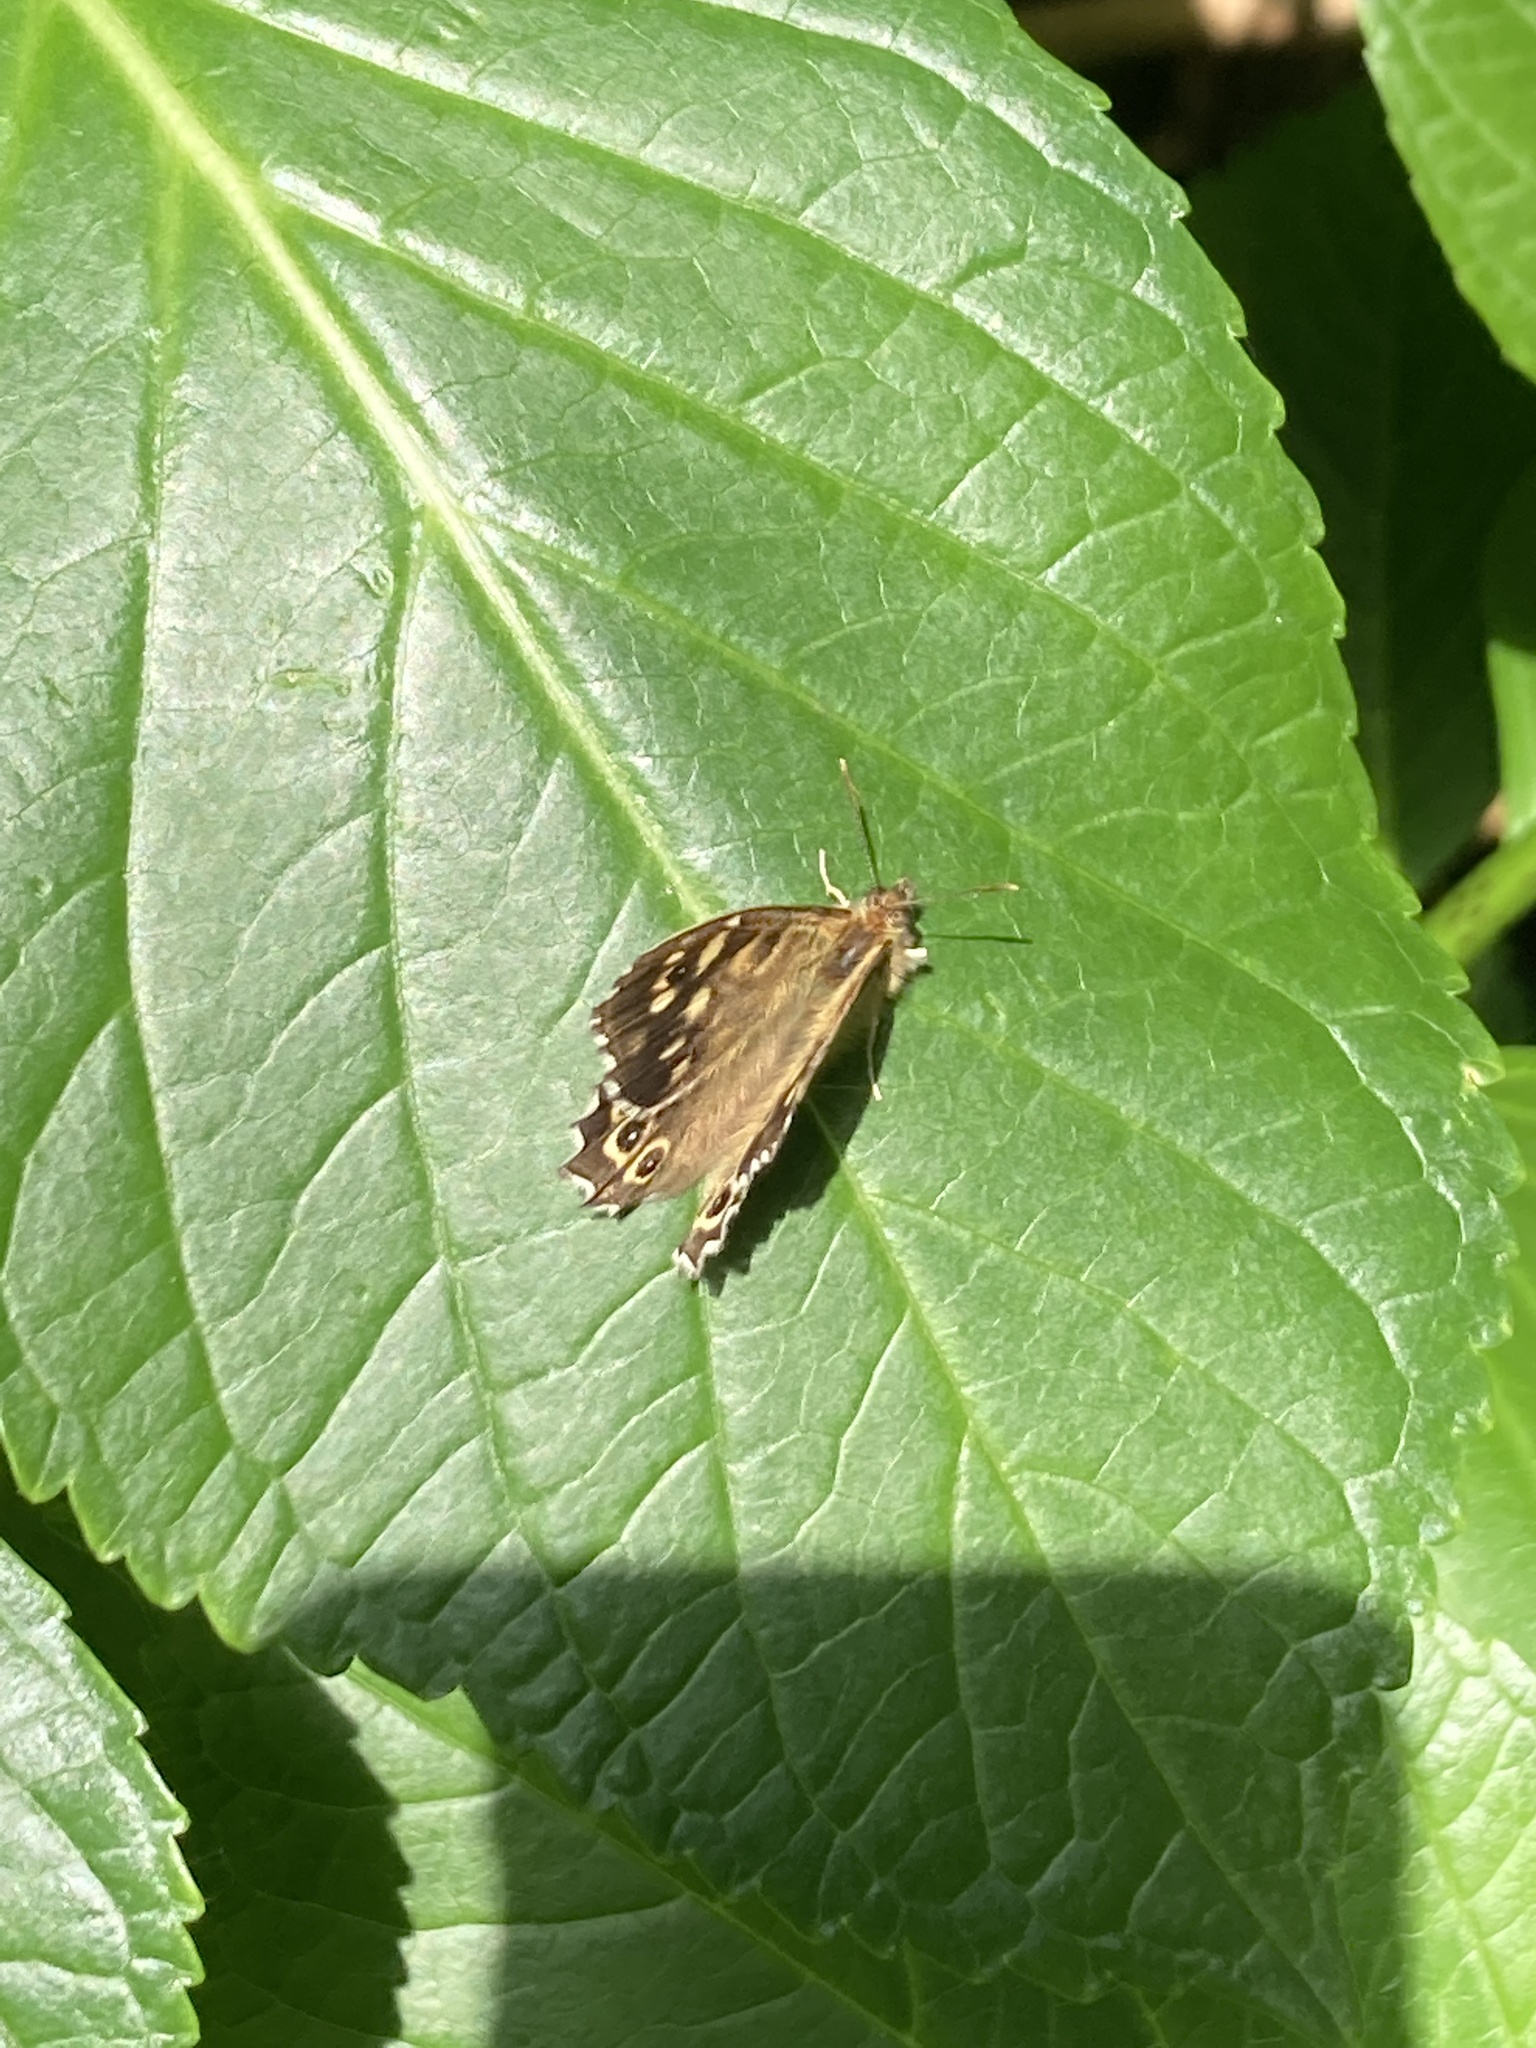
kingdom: Animalia
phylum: Arthropoda
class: Insecta
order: Lepidoptera
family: Nymphalidae
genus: Pararge
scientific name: Pararge aegeria
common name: Speckled wood
